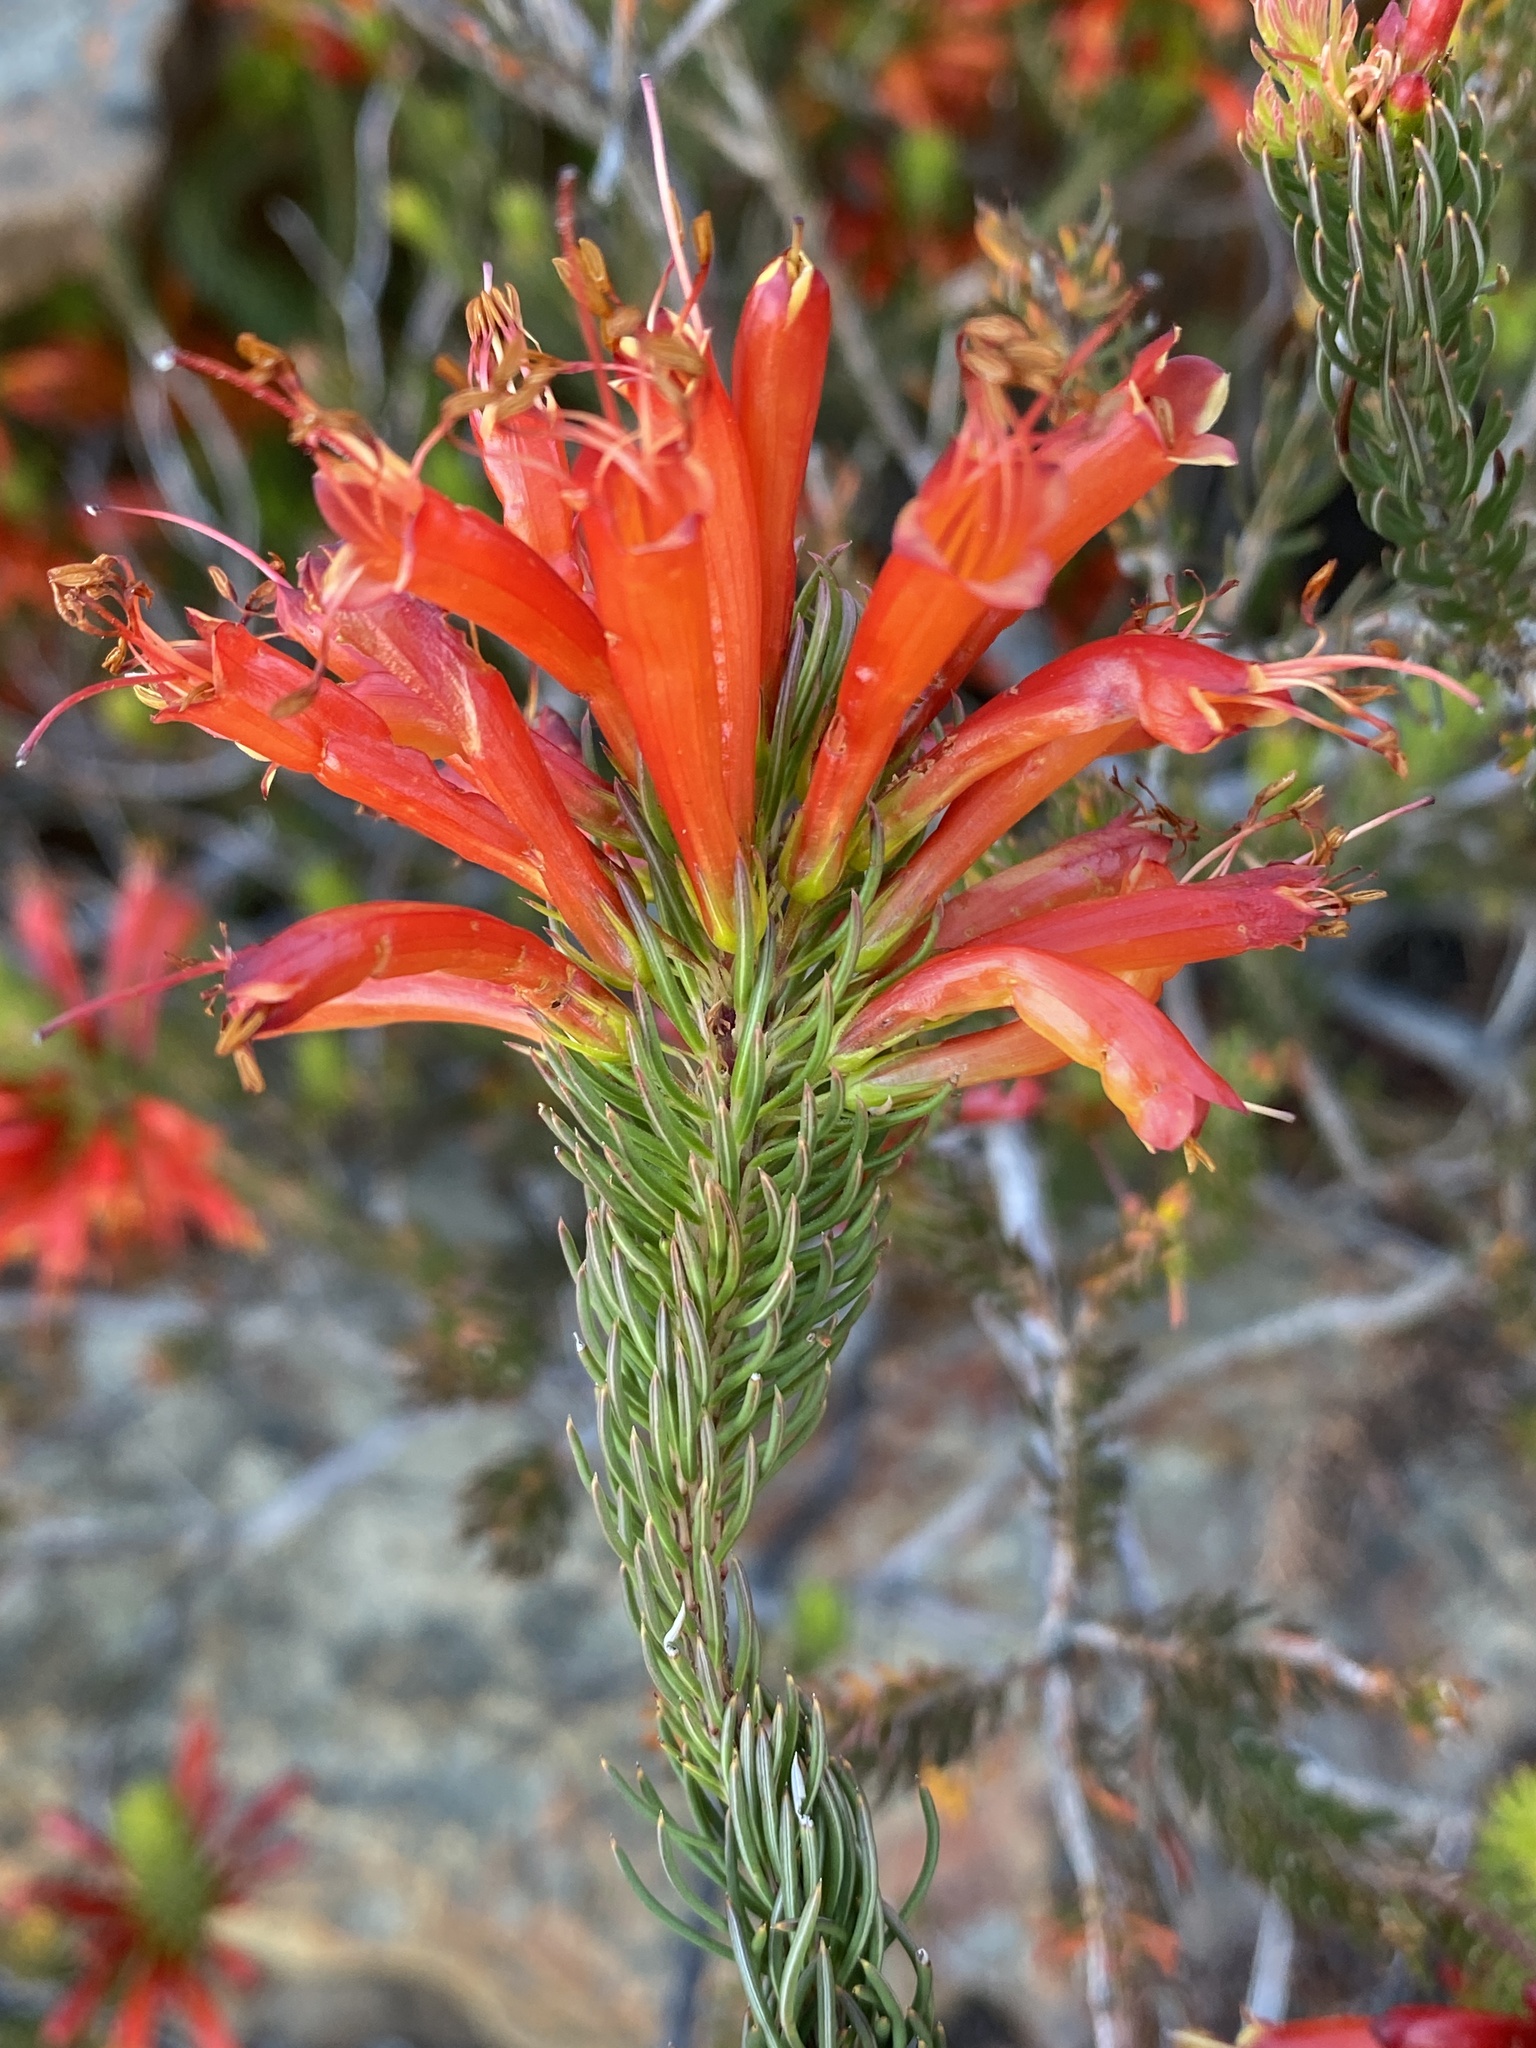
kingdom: Plantae
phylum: Tracheophyta
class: Magnoliopsida
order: Ericales
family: Ericaceae
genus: Erica
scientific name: Erica grandiflora
